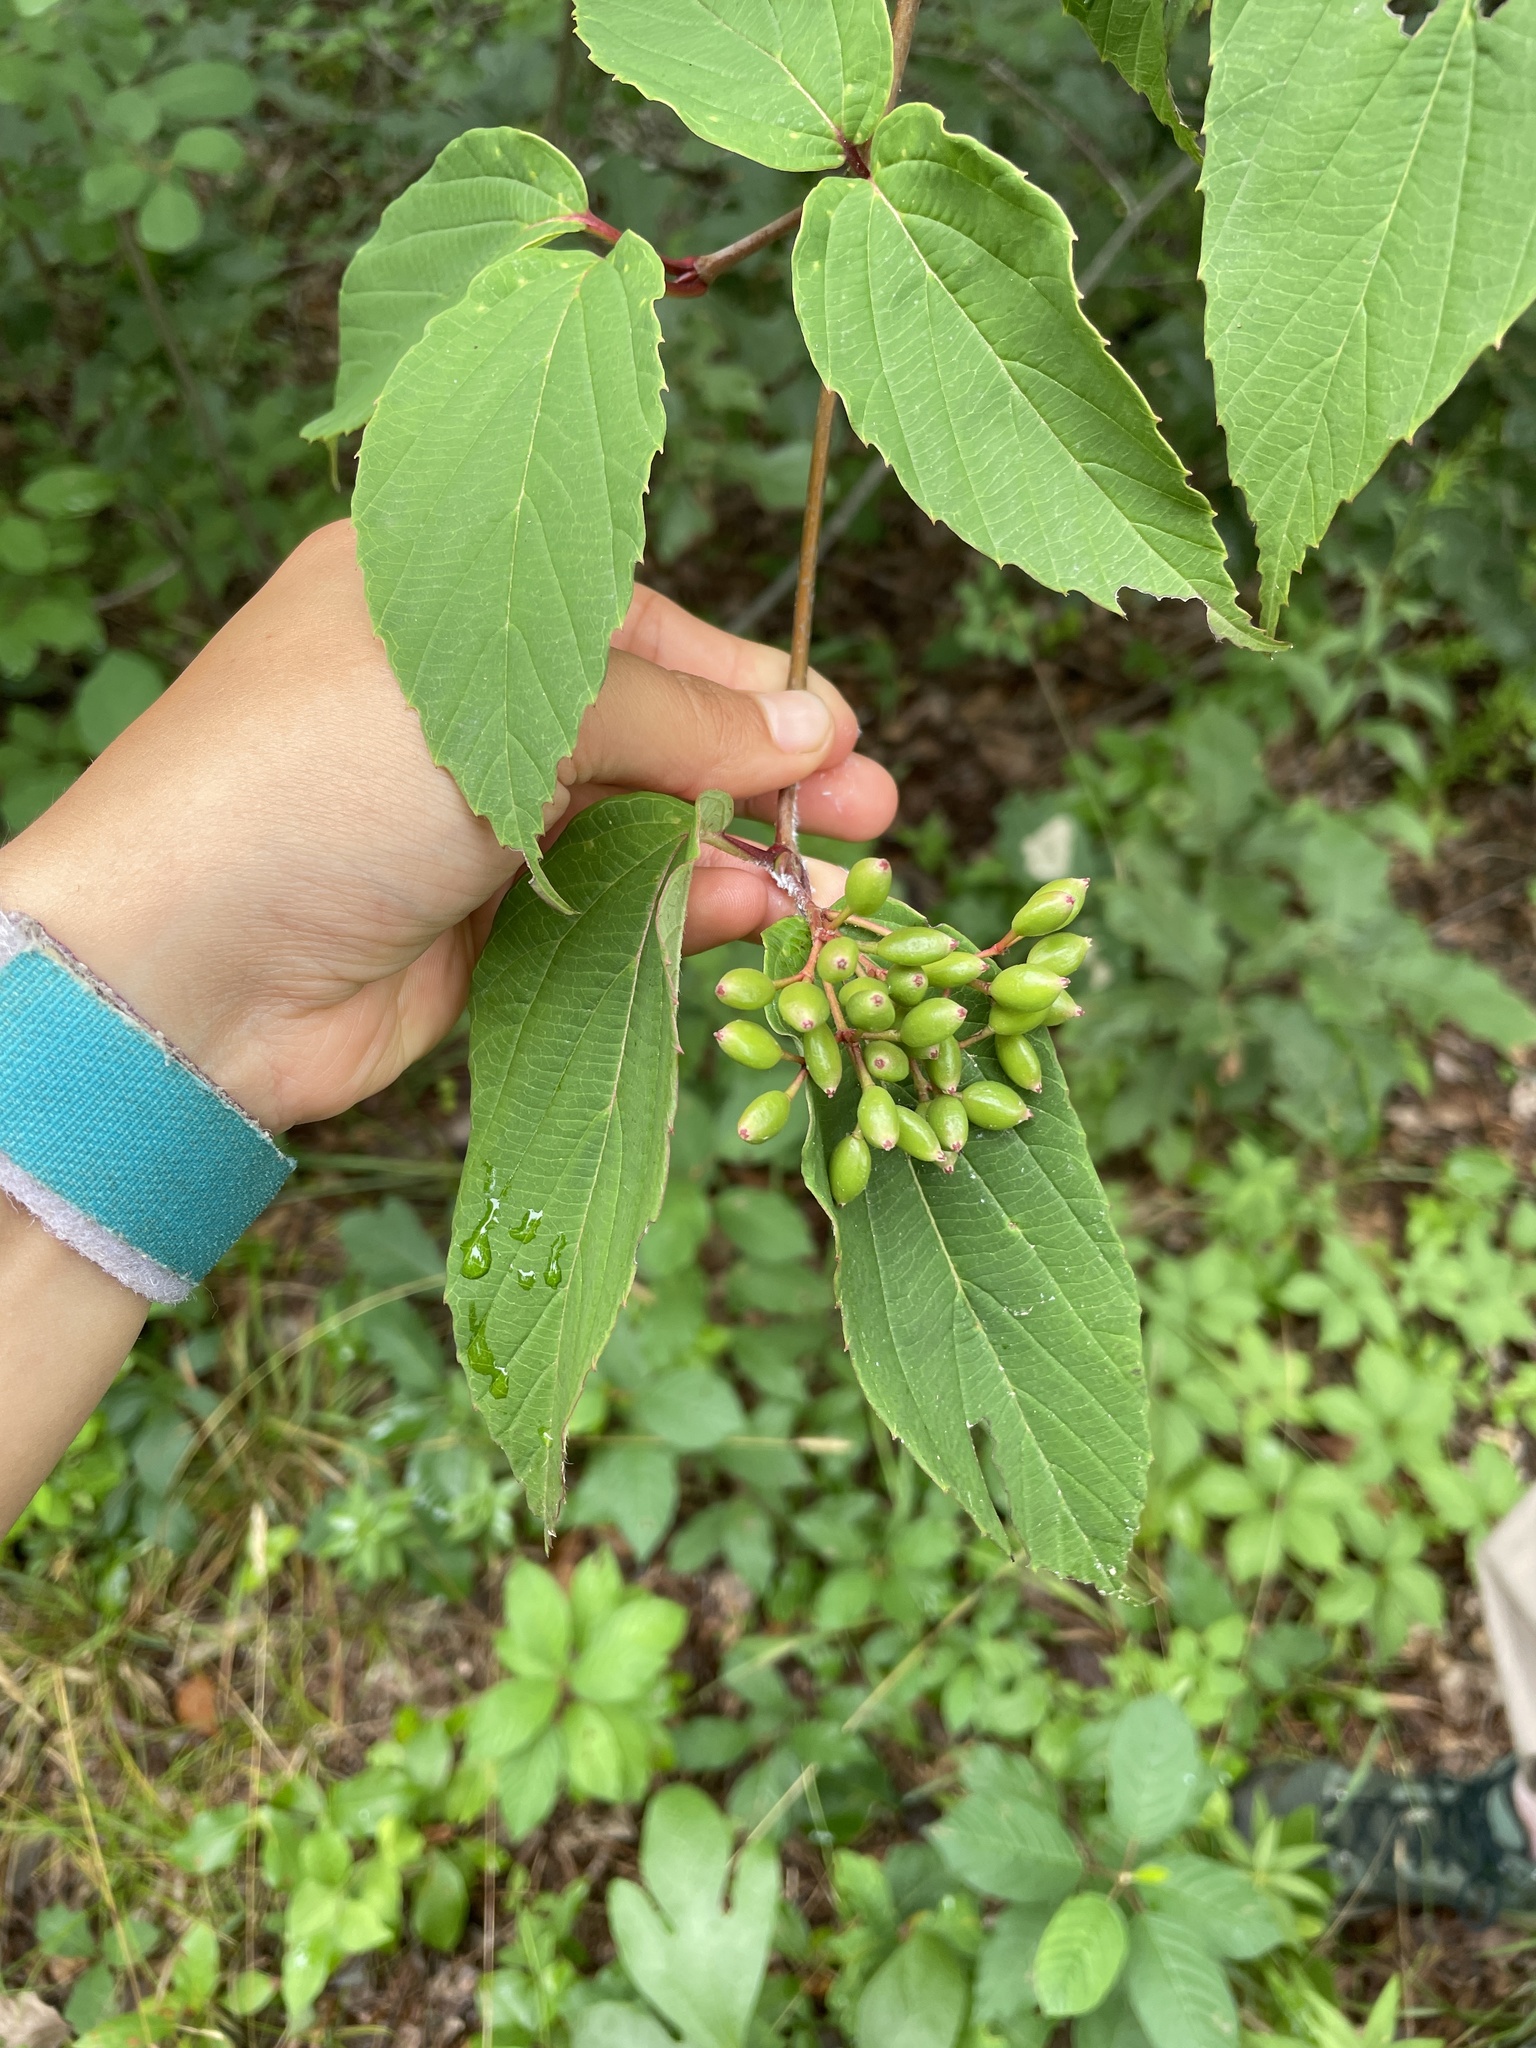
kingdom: Plantae
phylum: Tracheophyta
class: Magnoliopsida
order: Dipsacales
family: Viburnaceae
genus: Viburnum
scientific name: Viburnum setigerum
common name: Tea viburnum
